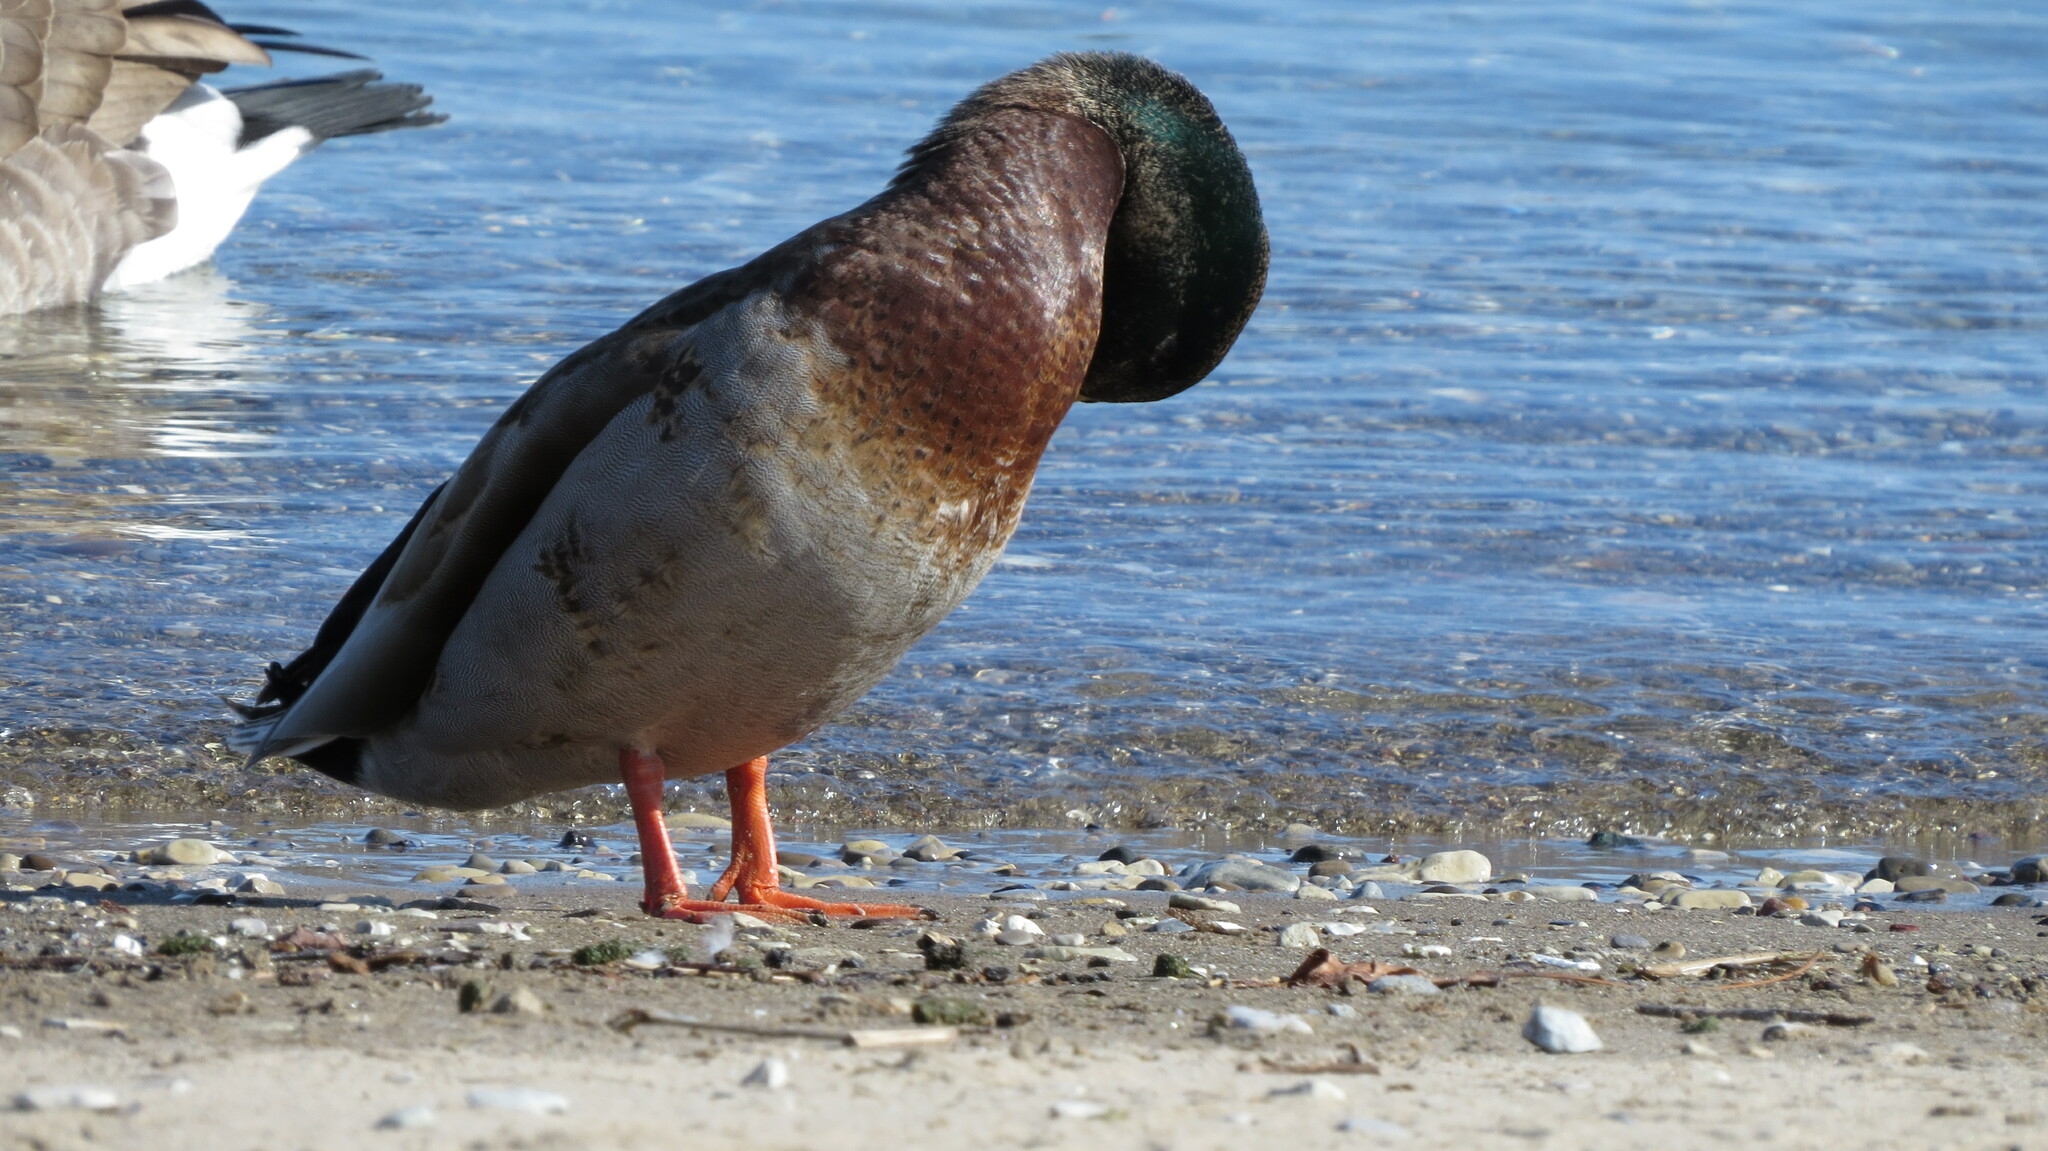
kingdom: Animalia
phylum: Chordata
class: Aves
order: Anseriformes
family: Anatidae
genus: Anas
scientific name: Anas platyrhynchos
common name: Mallard
